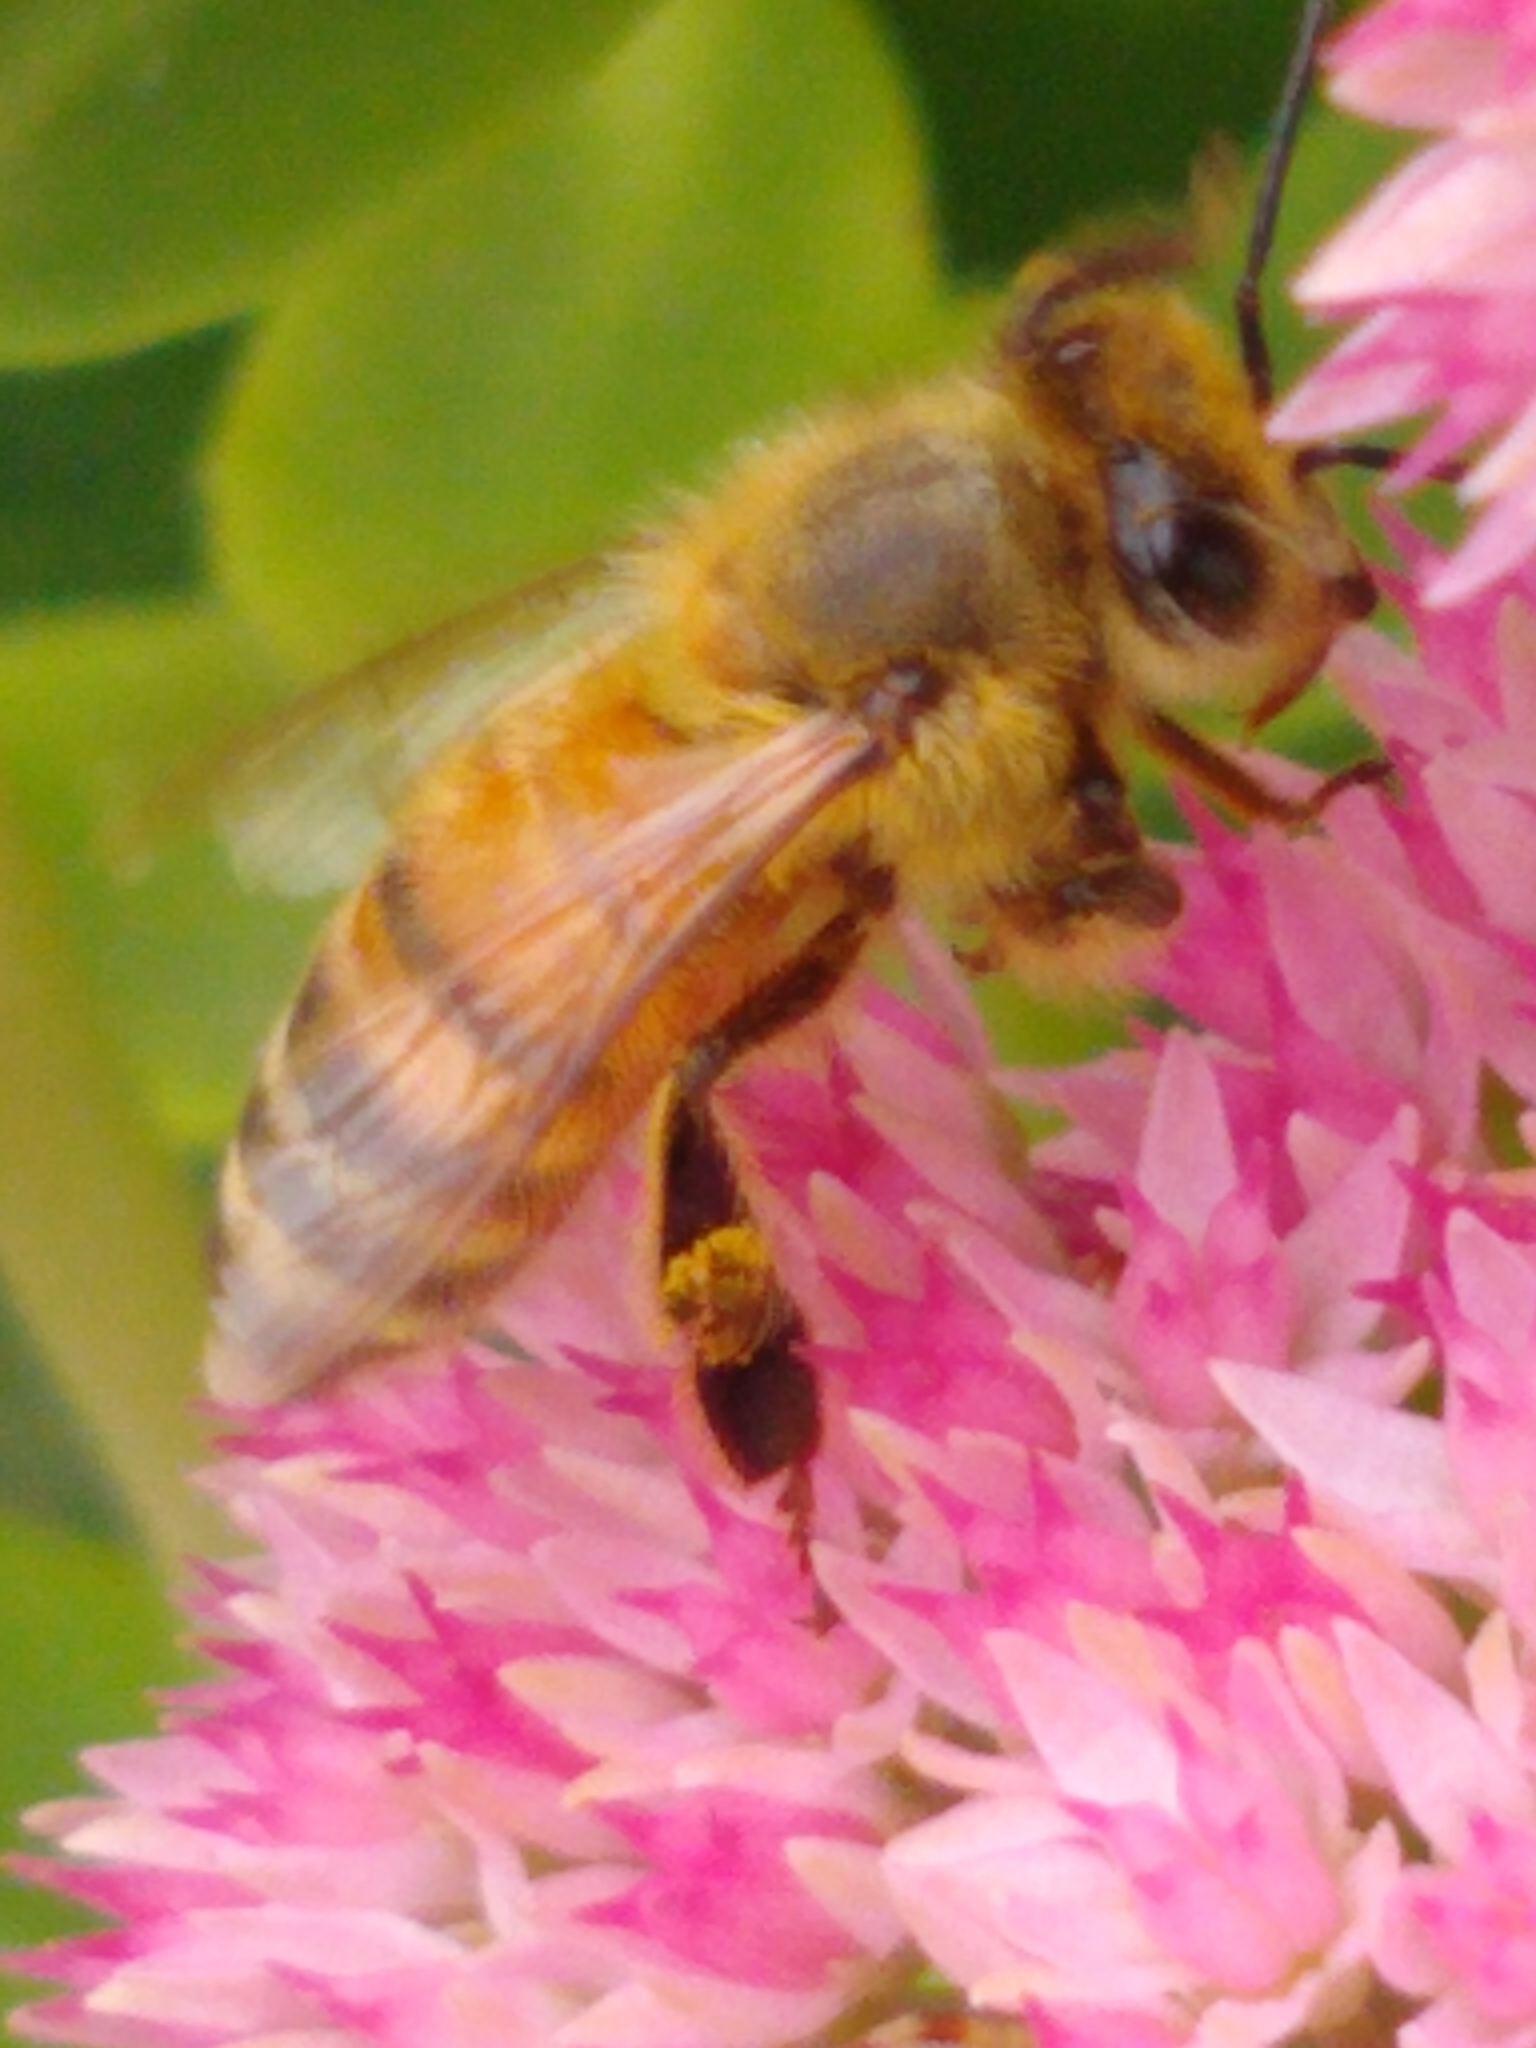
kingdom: Animalia
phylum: Arthropoda
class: Insecta
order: Hymenoptera
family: Apidae
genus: Apis
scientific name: Apis mellifera
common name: Honey bee
